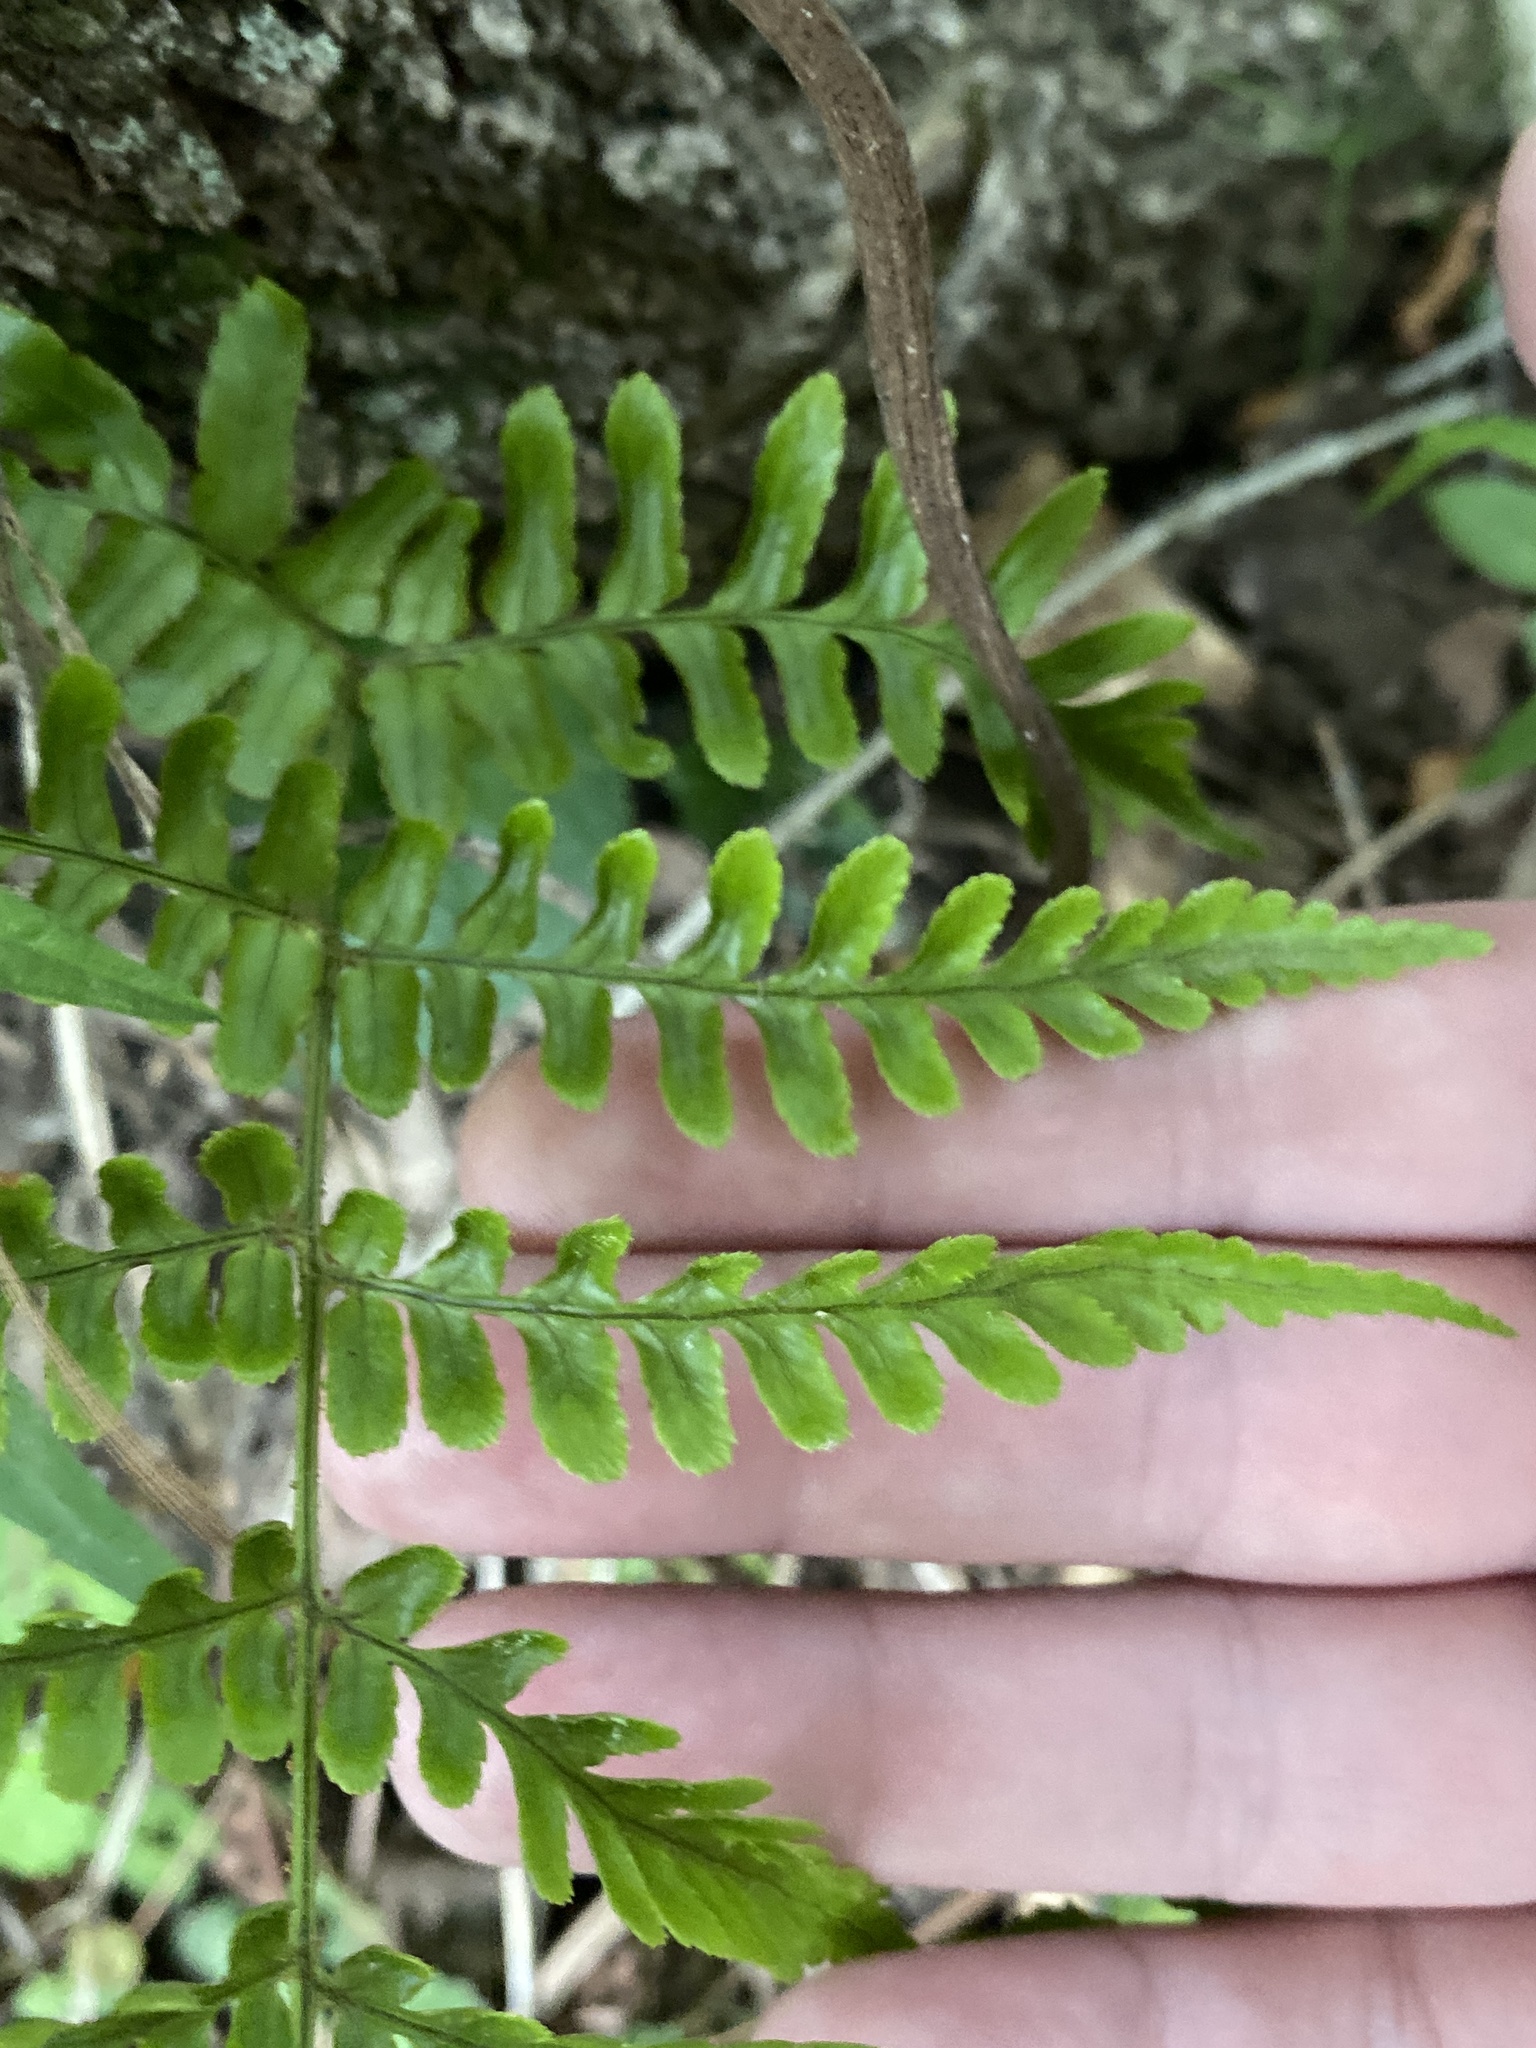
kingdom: Plantae
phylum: Tracheophyta
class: Polypodiopsida
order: Polypodiales
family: Dryopteridaceae
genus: Dryopteris
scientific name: Dryopteris erythrosora
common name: Autumn fern
